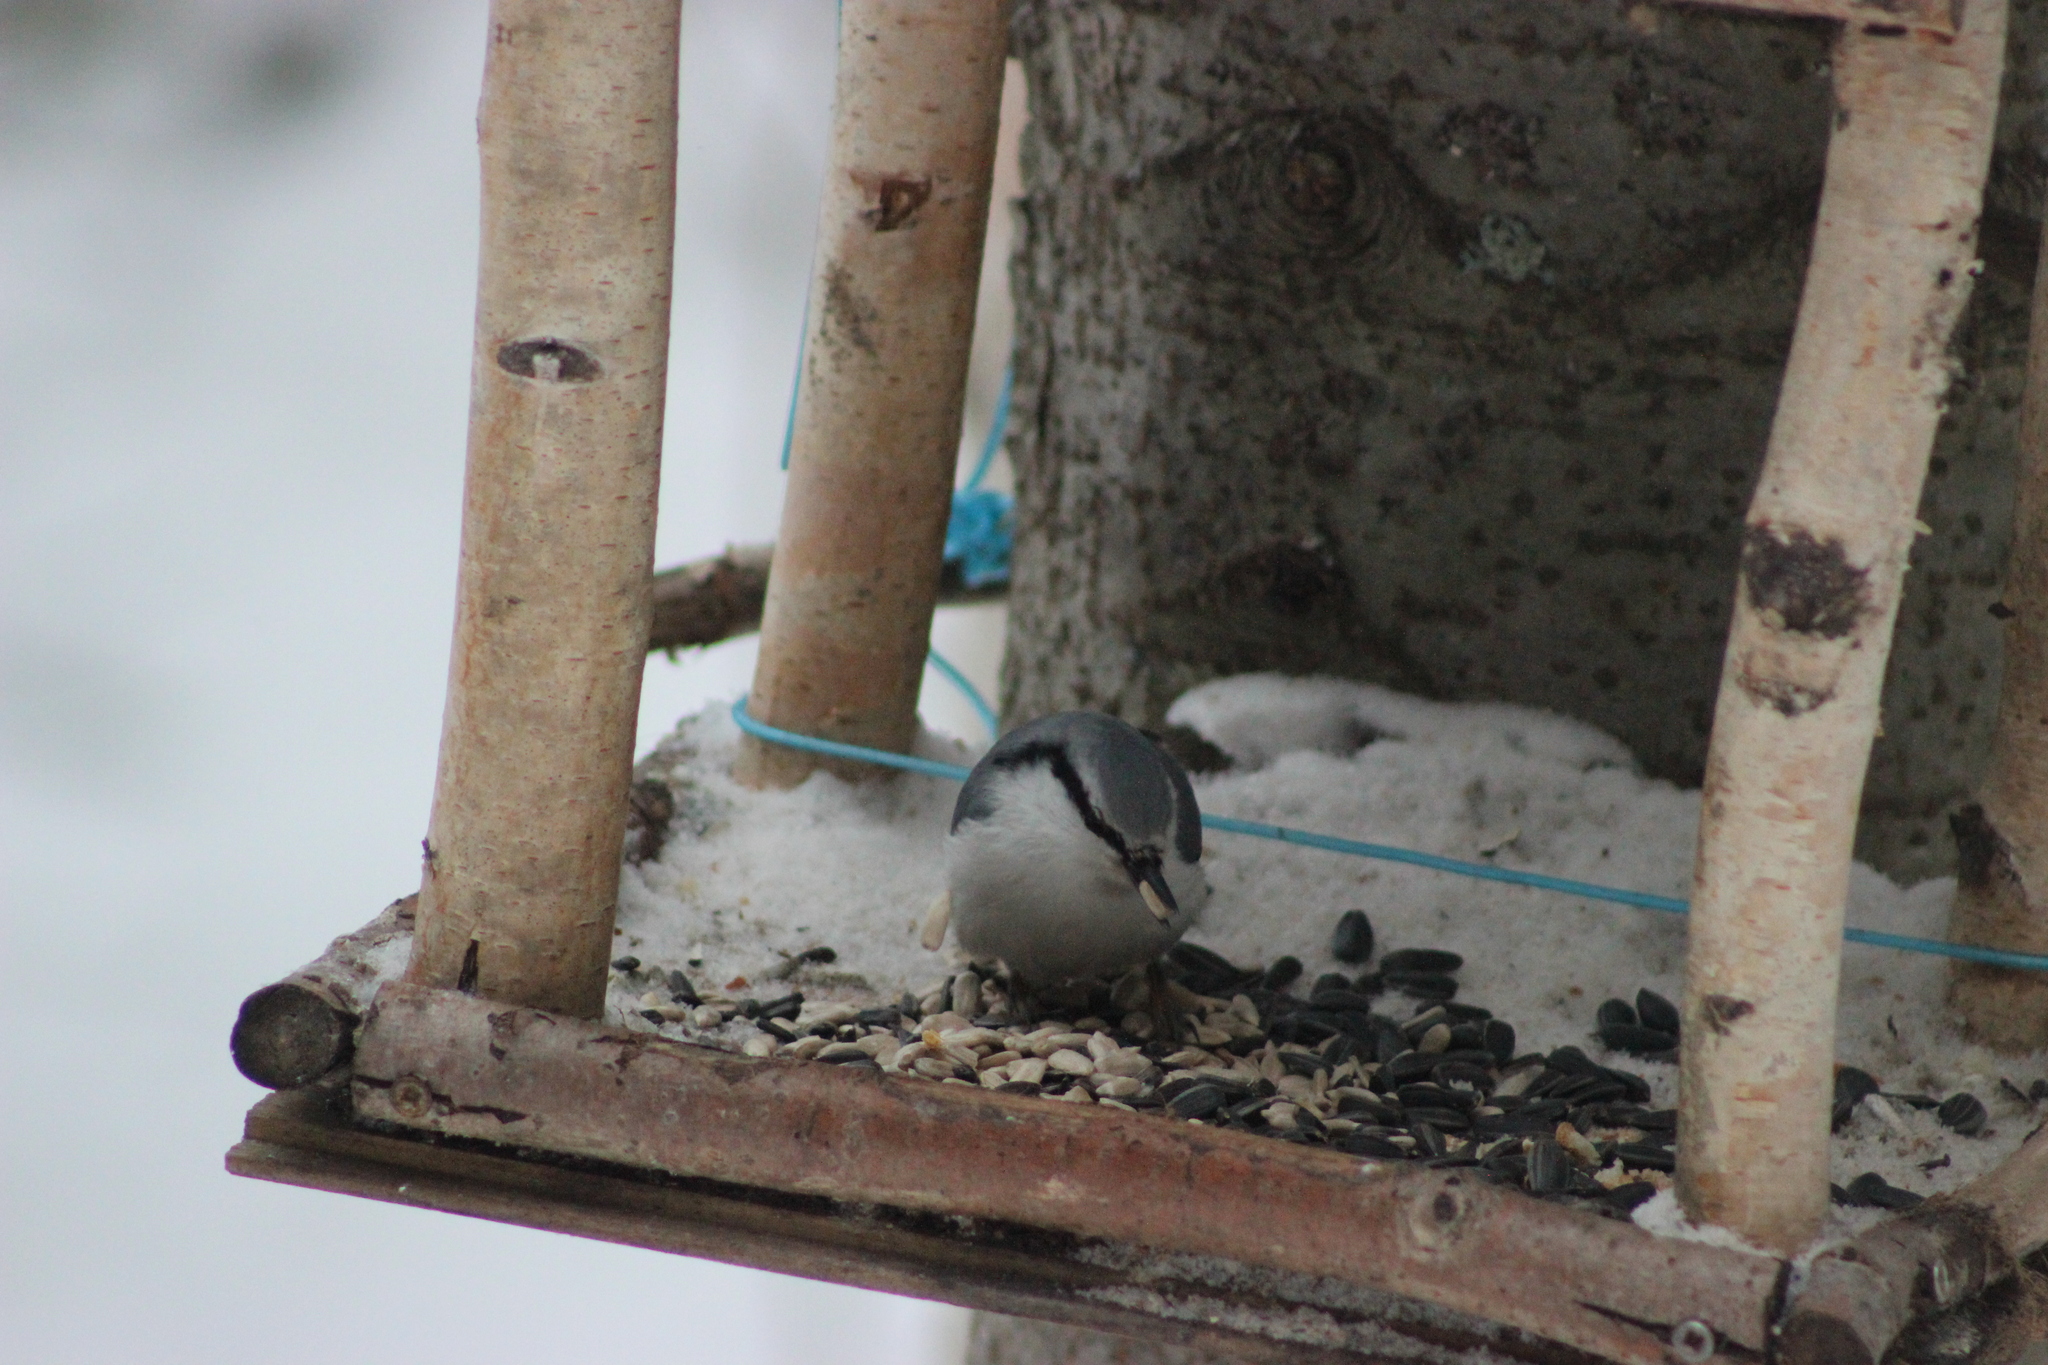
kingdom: Animalia
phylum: Chordata
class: Aves
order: Passeriformes
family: Sittidae
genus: Sitta
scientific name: Sitta europaea
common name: Eurasian nuthatch
